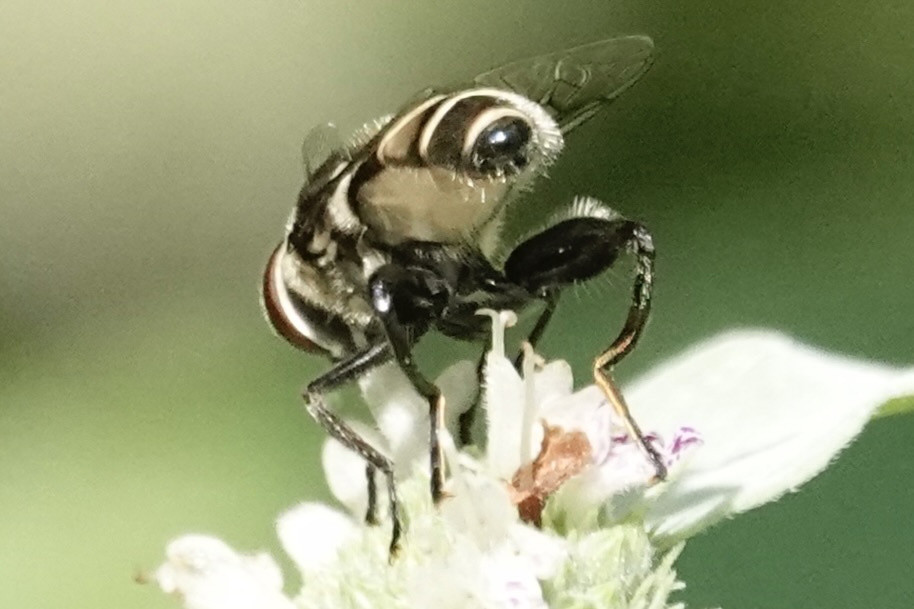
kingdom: Animalia
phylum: Arthropoda
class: Insecta
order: Diptera
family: Syrphidae
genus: Palpada
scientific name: Palpada furcata
